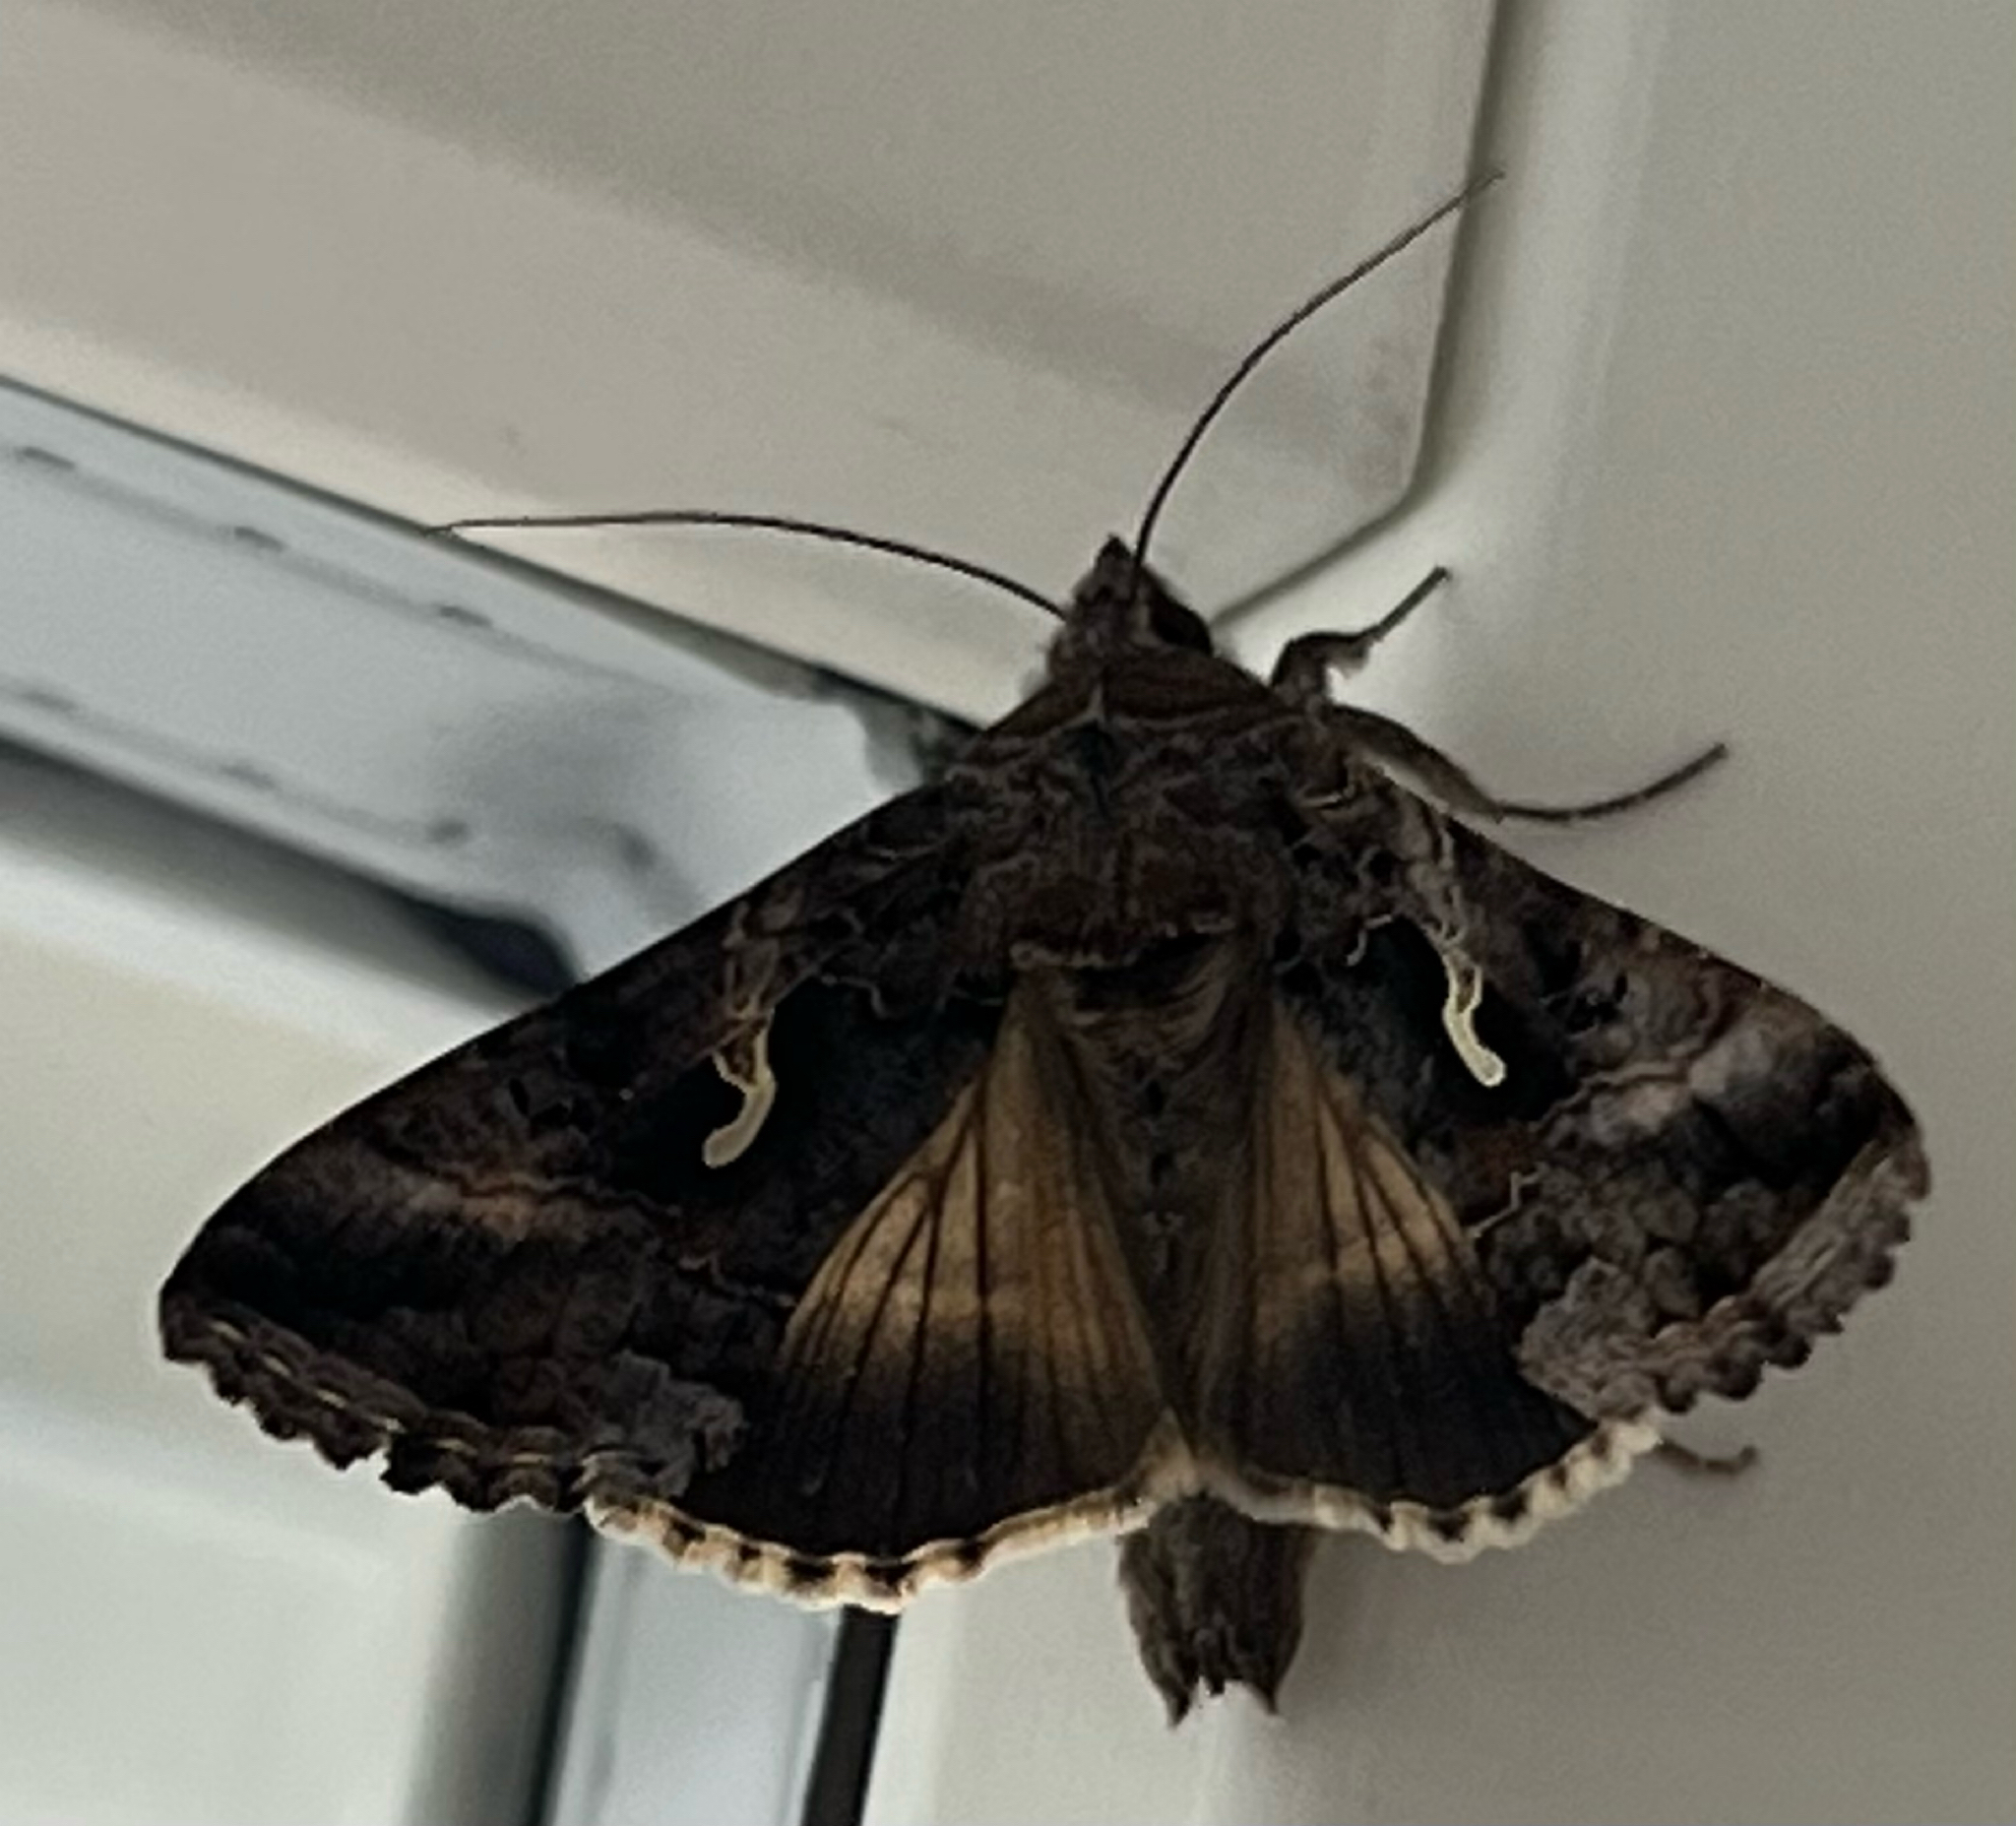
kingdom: Animalia
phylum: Arthropoda
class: Insecta
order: Lepidoptera
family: Noctuidae
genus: Autographa
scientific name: Autographa gamma
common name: Silver y
